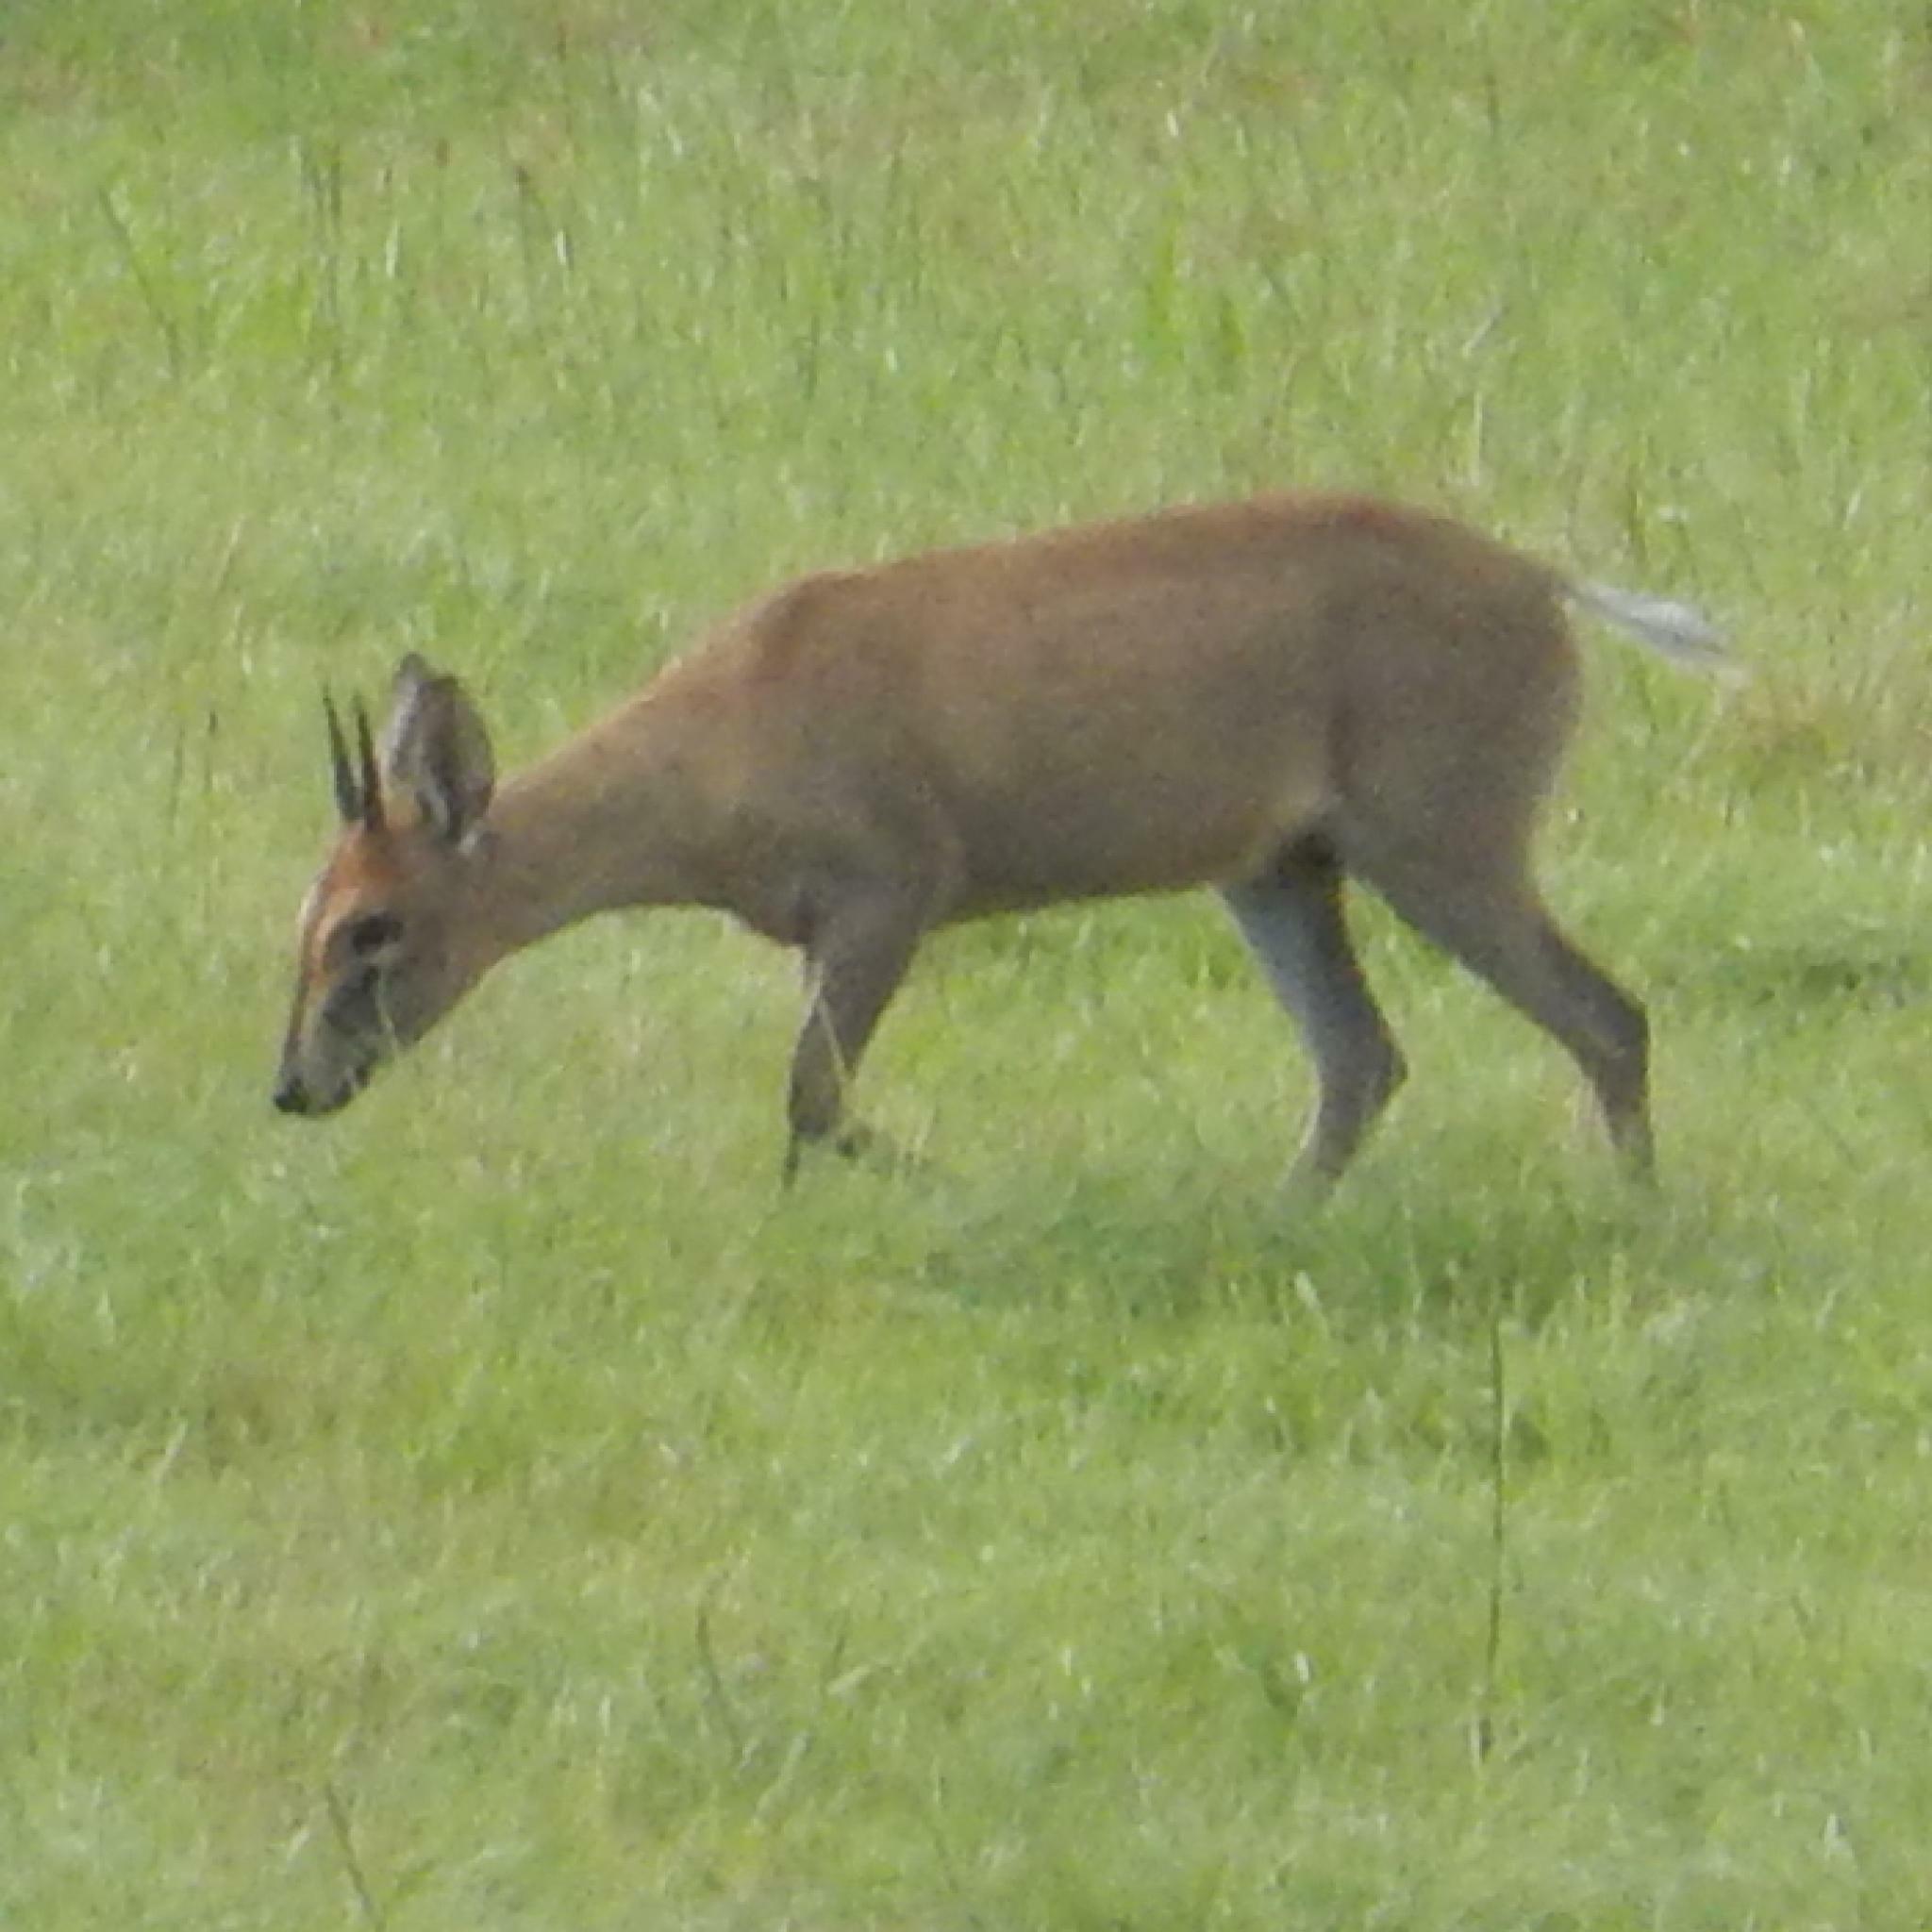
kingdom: Animalia
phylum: Chordata
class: Mammalia
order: Artiodactyla
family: Bovidae
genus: Sylvicapra
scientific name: Sylvicapra grimmia
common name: Bush duiker
